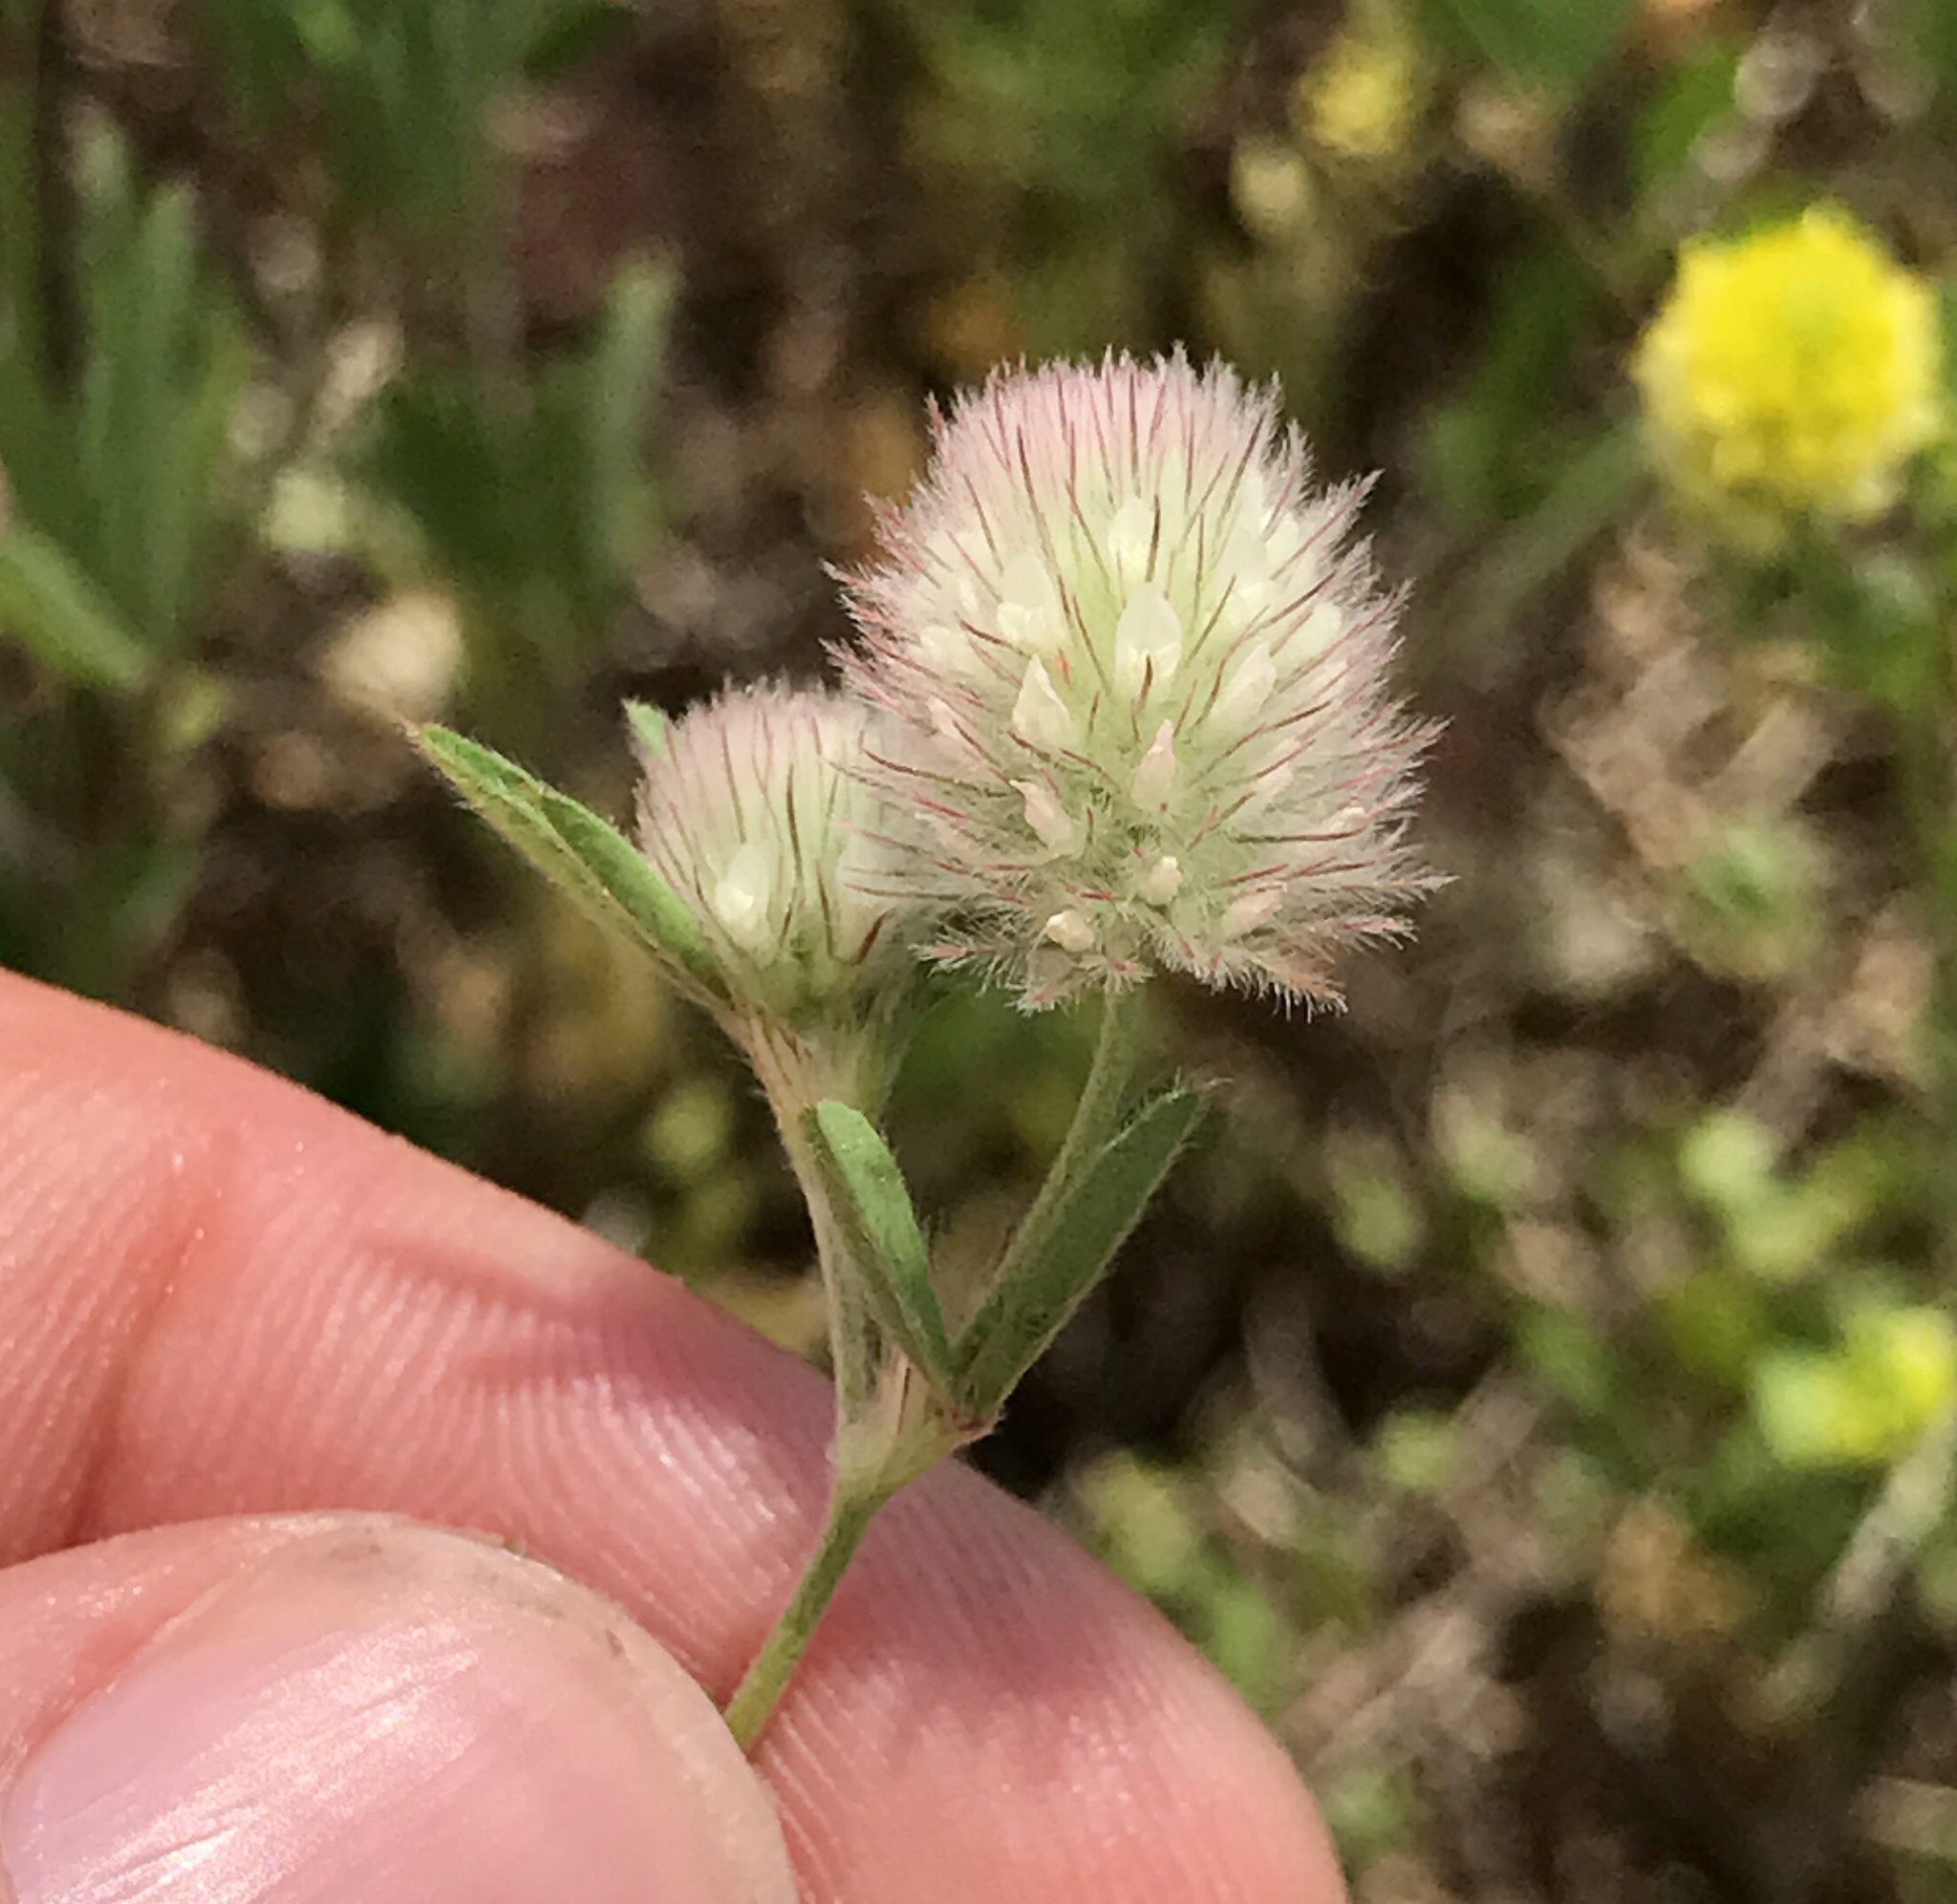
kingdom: Plantae
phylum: Tracheophyta
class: Magnoliopsida
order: Fabales
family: Fabaceae
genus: Trifolium
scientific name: Trifolium arvense
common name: Hare's-foot clover
